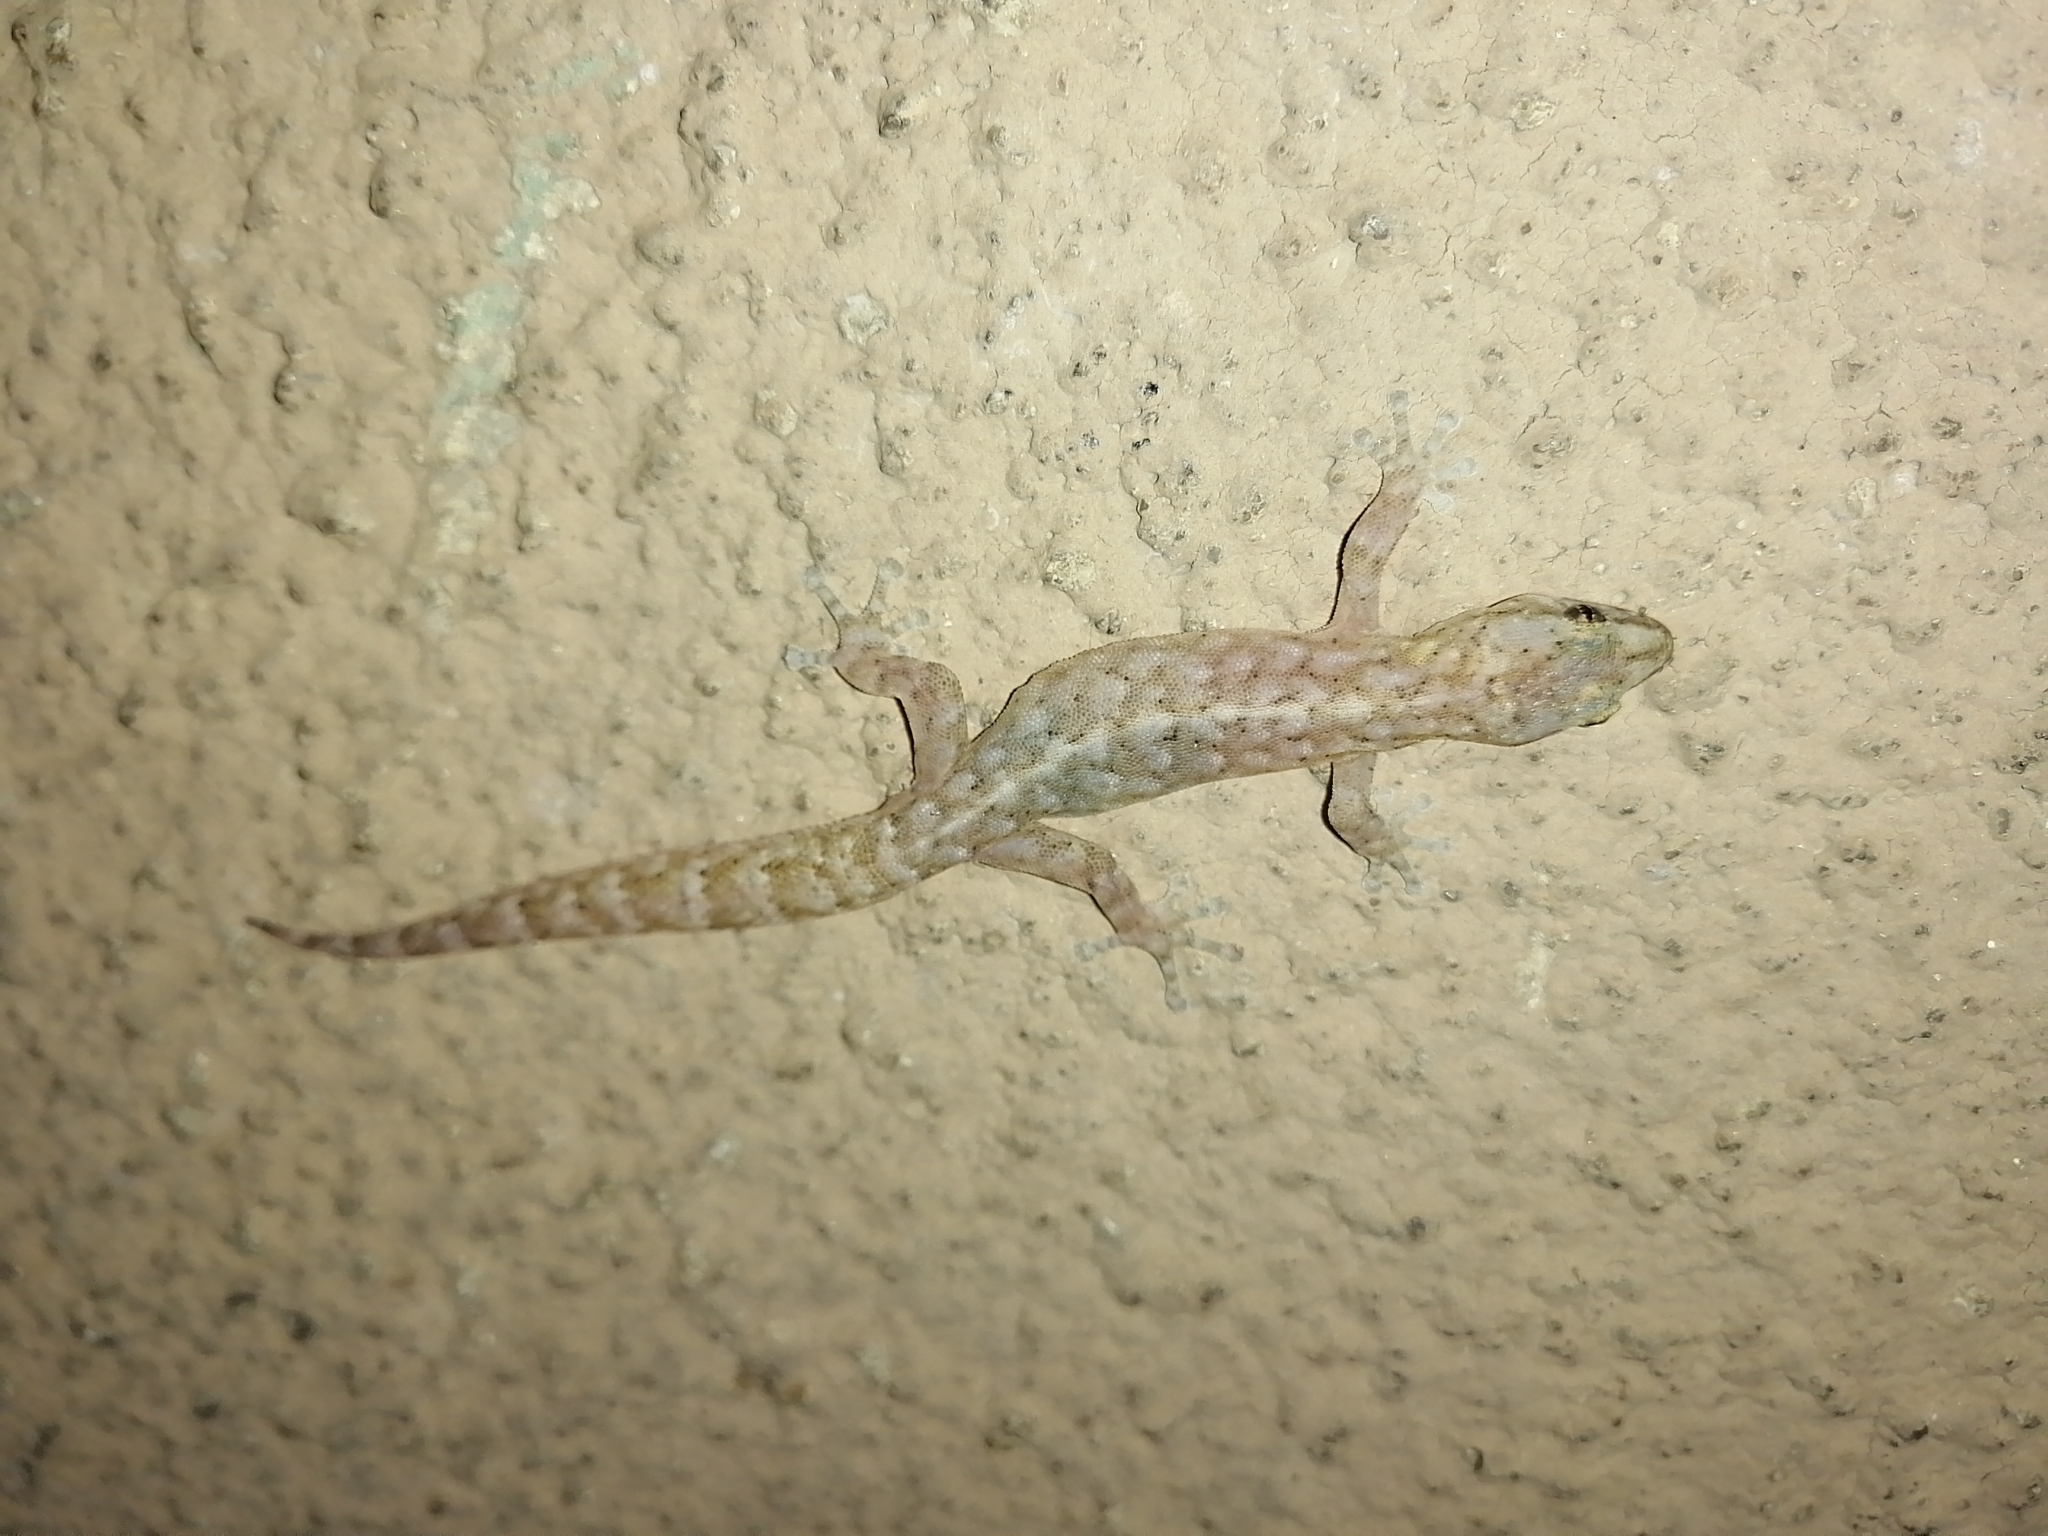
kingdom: Animalia
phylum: Chordata
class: Squamata
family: Gekkonidae
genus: Afrogecko
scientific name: Afrogecko porphyreus
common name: Marbled leaf-toed gecko
